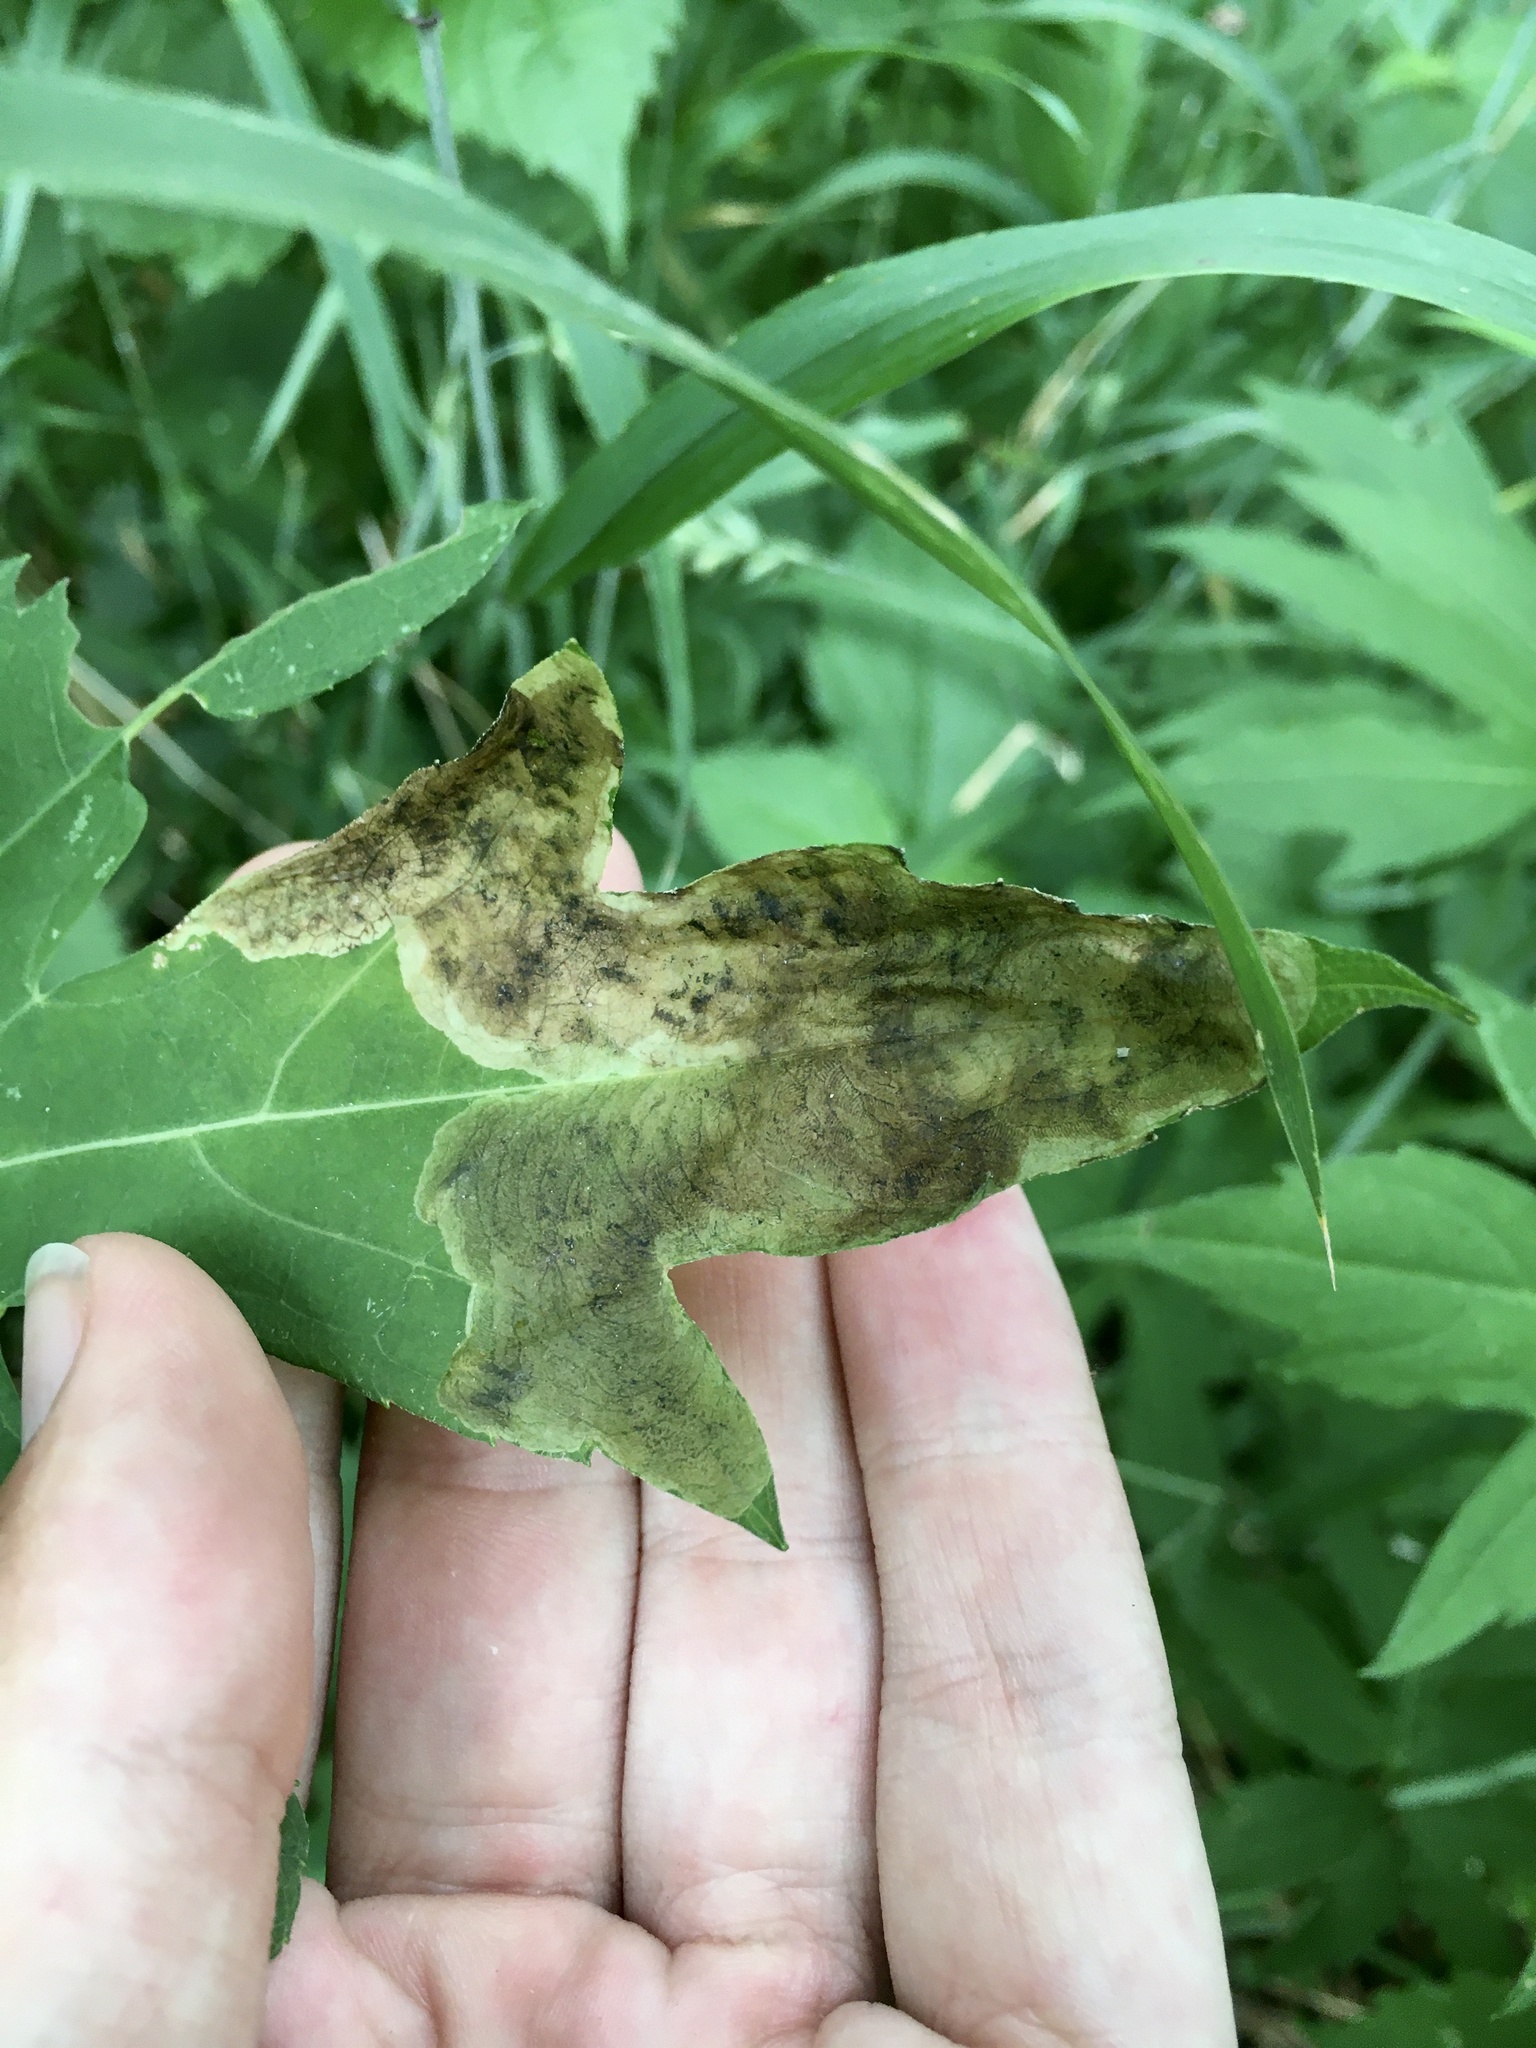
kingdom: Animalia
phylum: Arthropoda
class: Insecta
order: Diptera
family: Agromyzidae
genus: Agromyza
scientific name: Agromyza rudbeckiana
